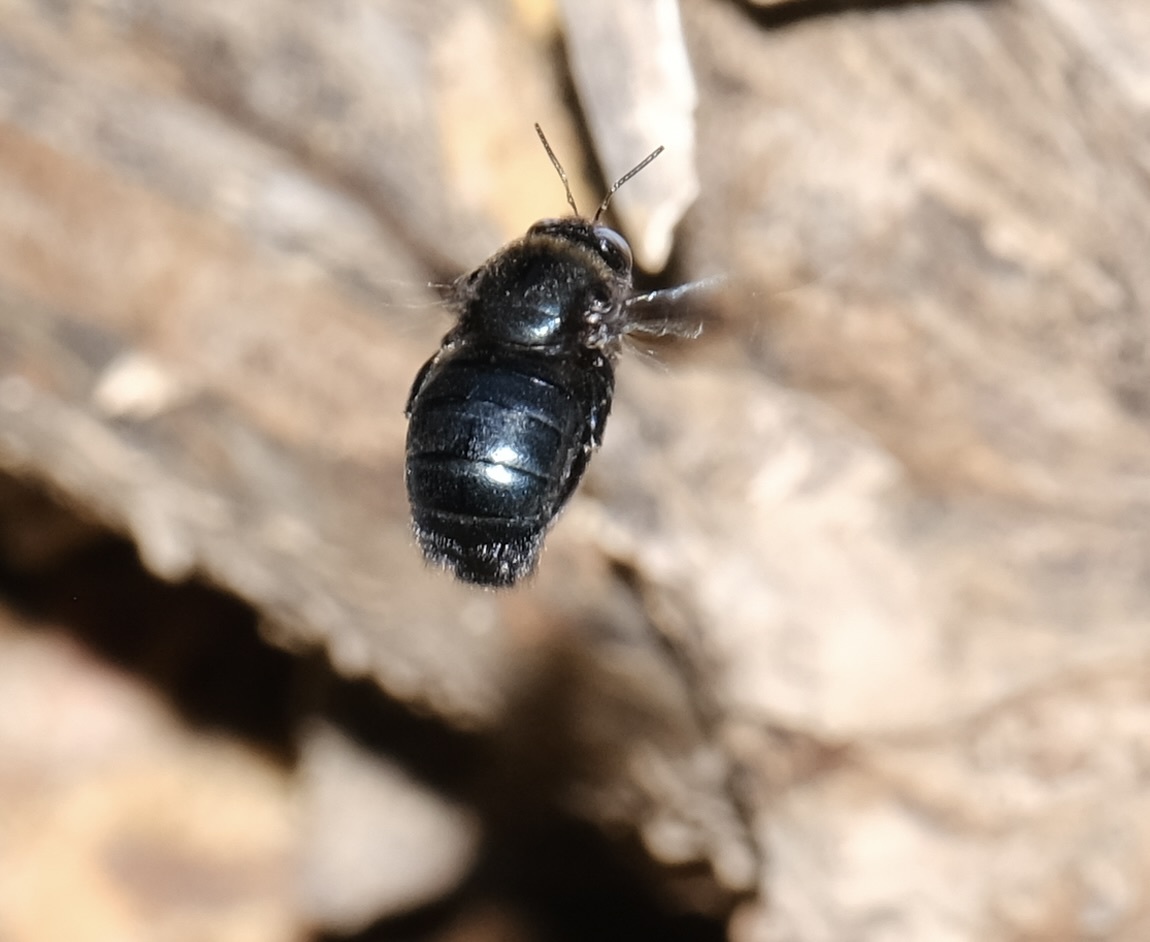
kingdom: Animalia
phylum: Arthropoda
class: Insecta
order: Hymenoptera
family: Apidae
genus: Xylocopa
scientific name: Xylocopa californica
